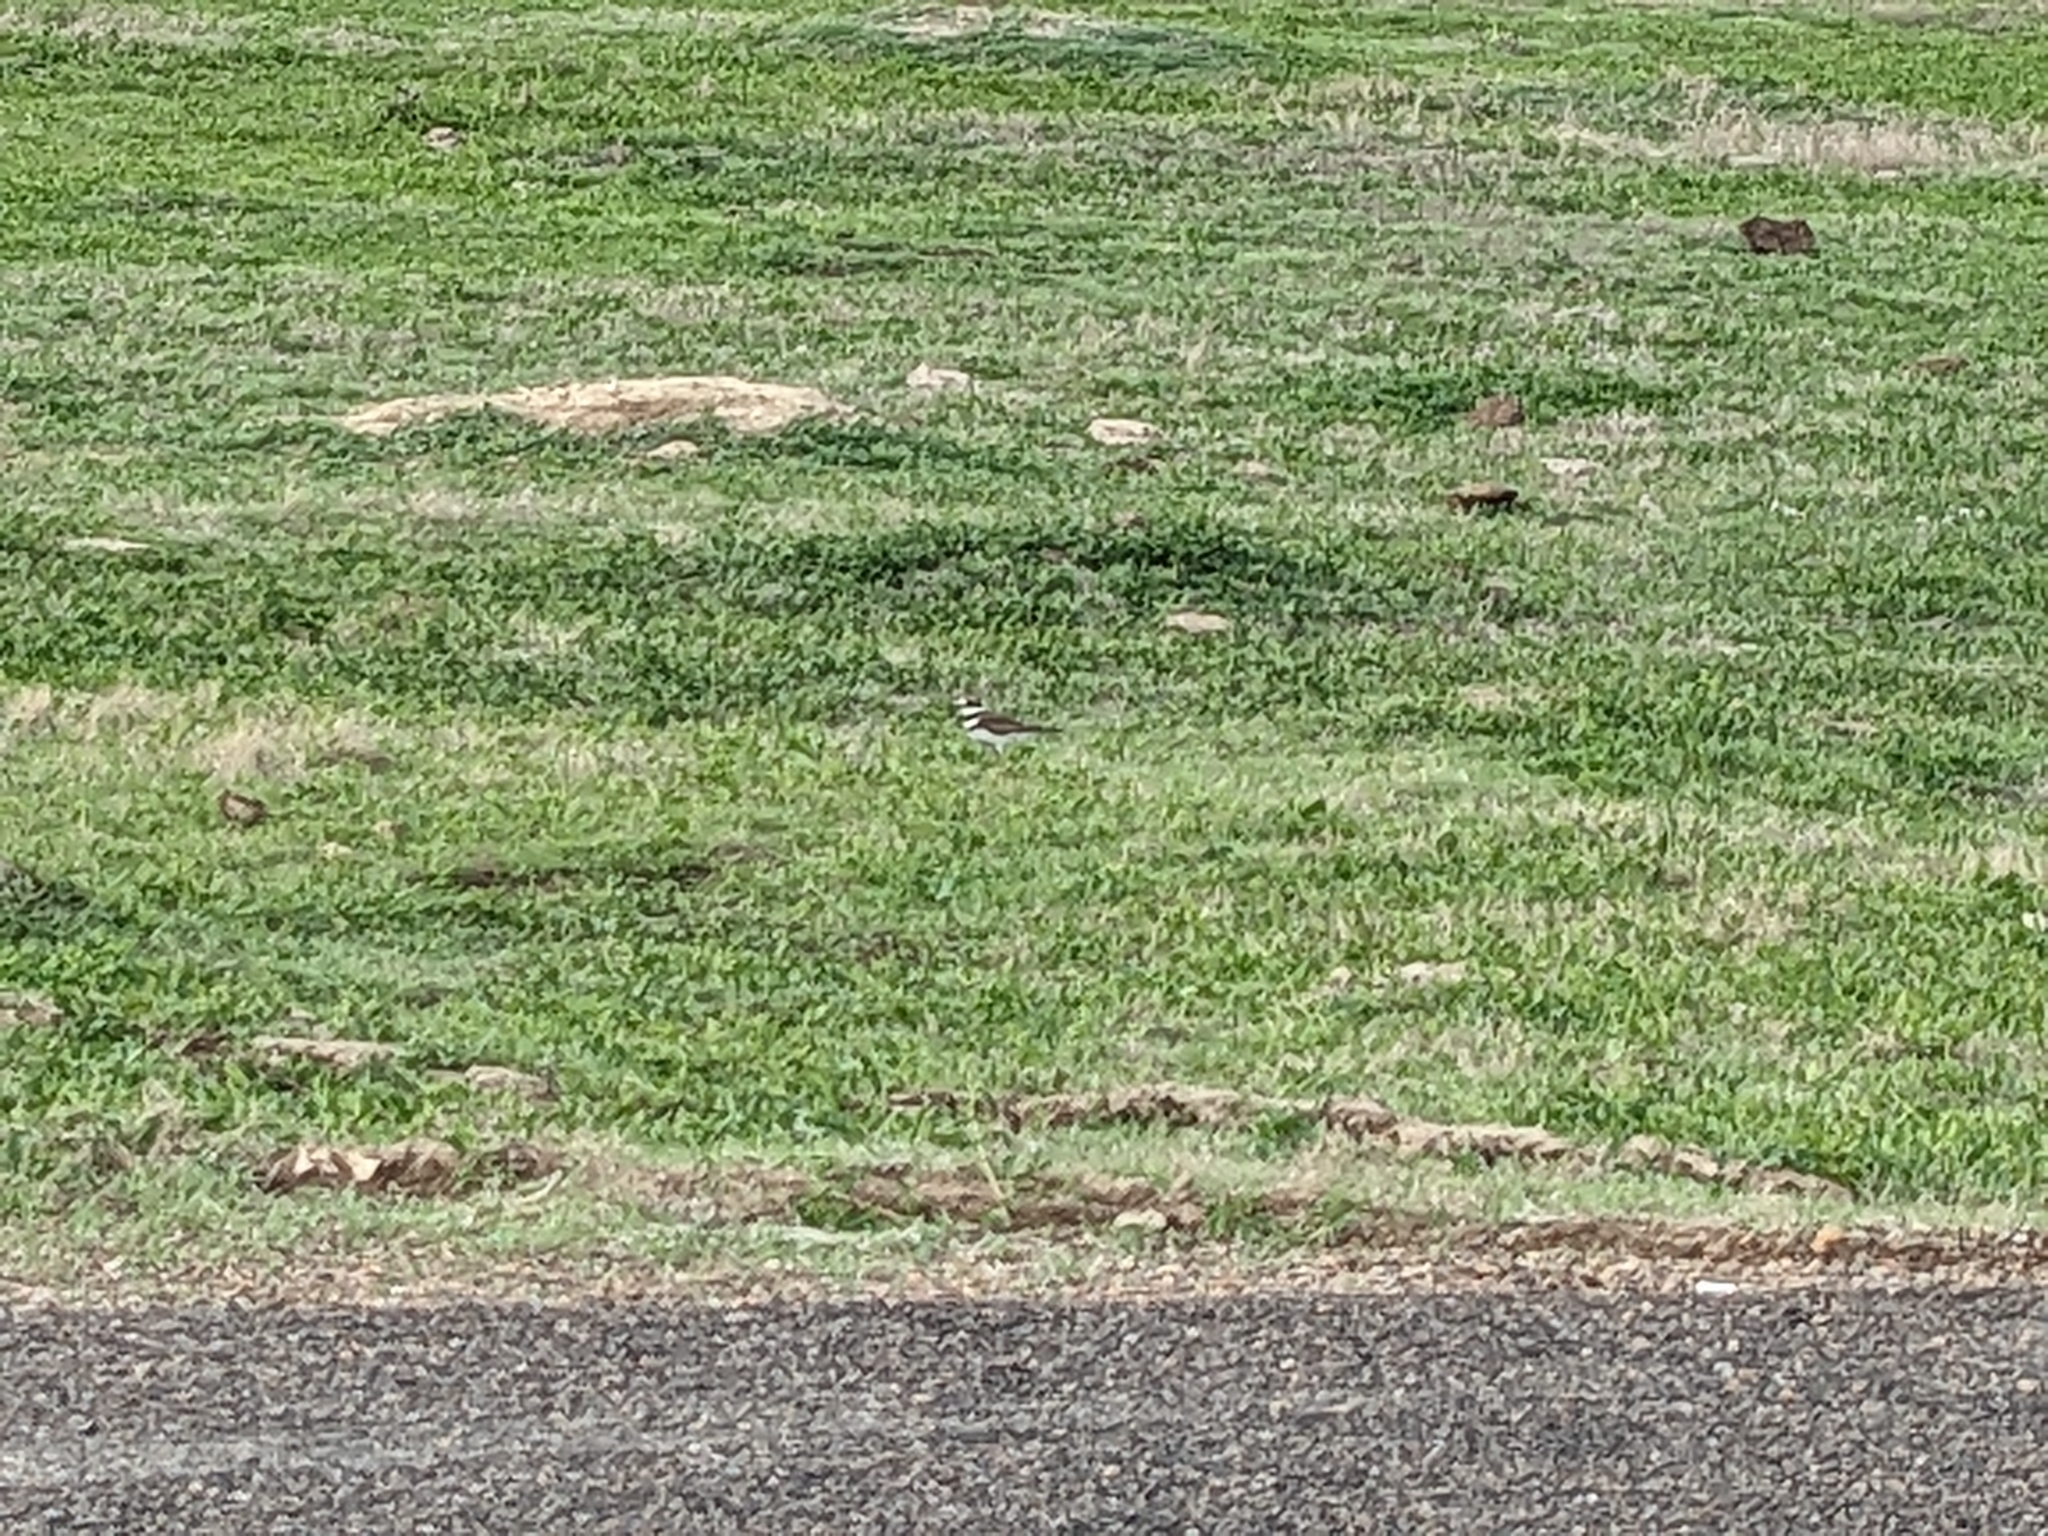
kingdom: Animalia
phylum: Chordata
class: Aves
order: Charadriiformes
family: Charadriidae
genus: Charadrius
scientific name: Charadrius vociferus
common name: Killdeer
